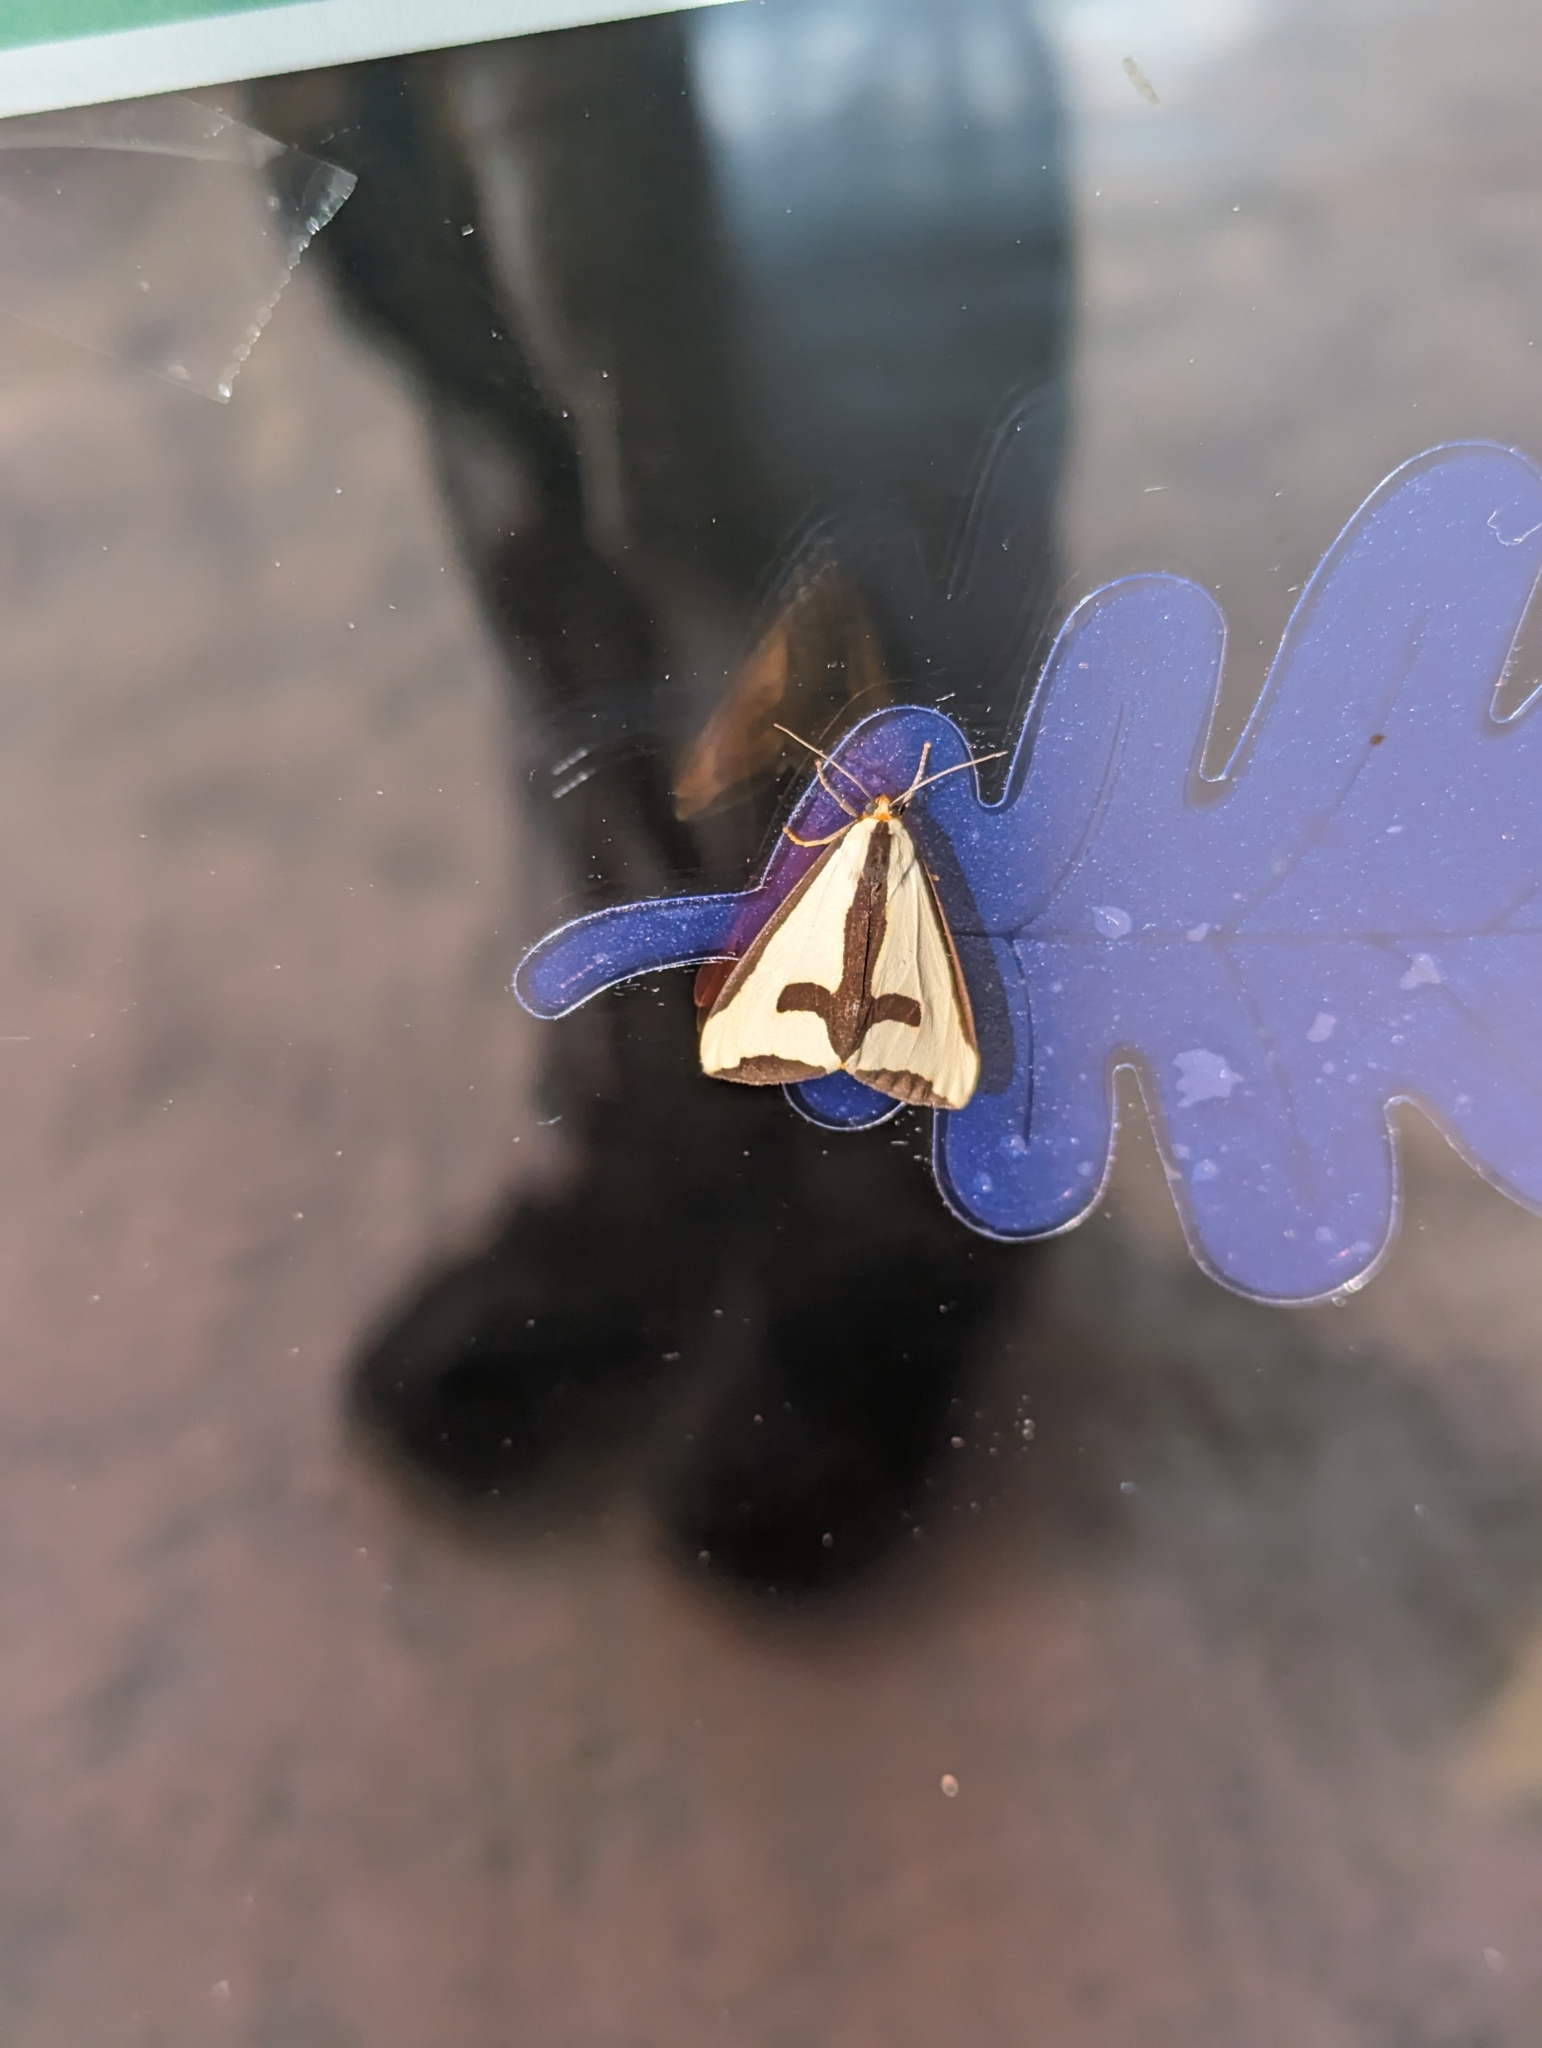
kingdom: Animalia
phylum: Arthropoda
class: Insecta
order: Lepidoptera
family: Erebidae
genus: Haploa
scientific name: Haploa clymene
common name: Clymene moth
